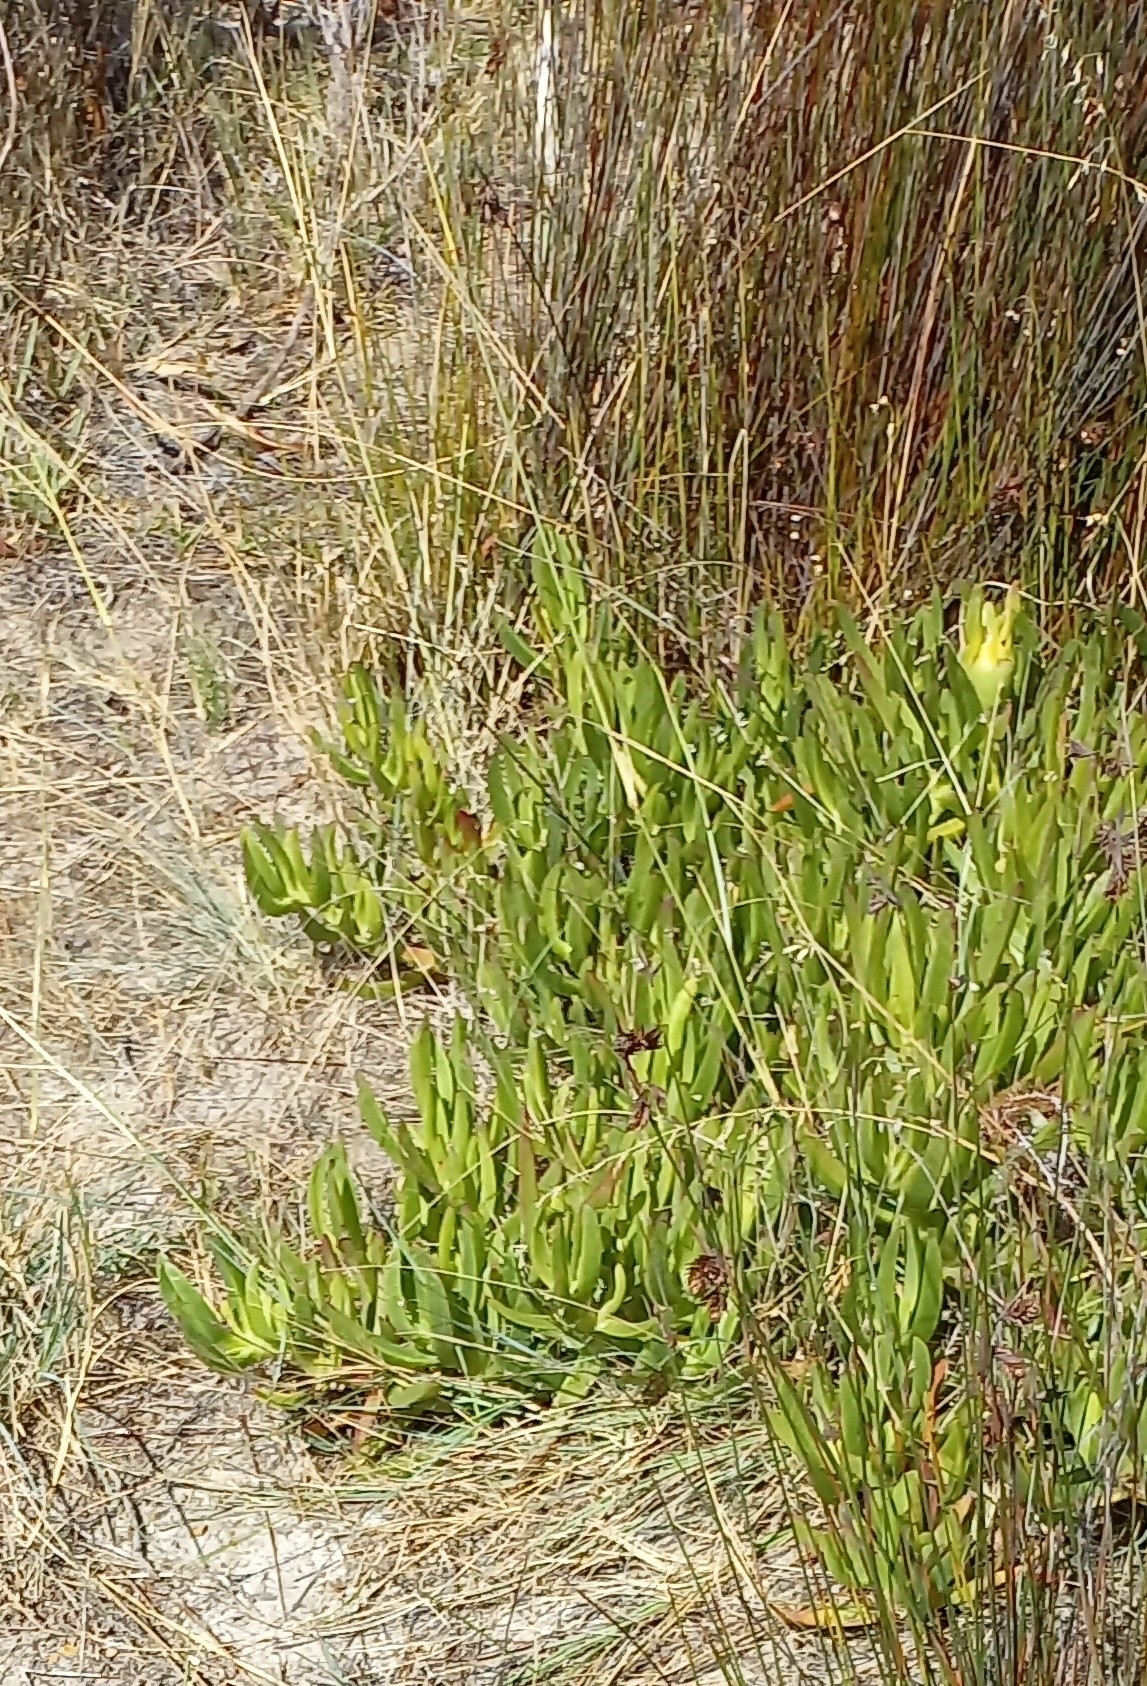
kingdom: Plantae
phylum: Tracheophyta
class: Magnoliopsida
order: Caryophyllales
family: Aizoaceae
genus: Carpobrotus
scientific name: Carpobrotus edulis
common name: Hottentot-fig
